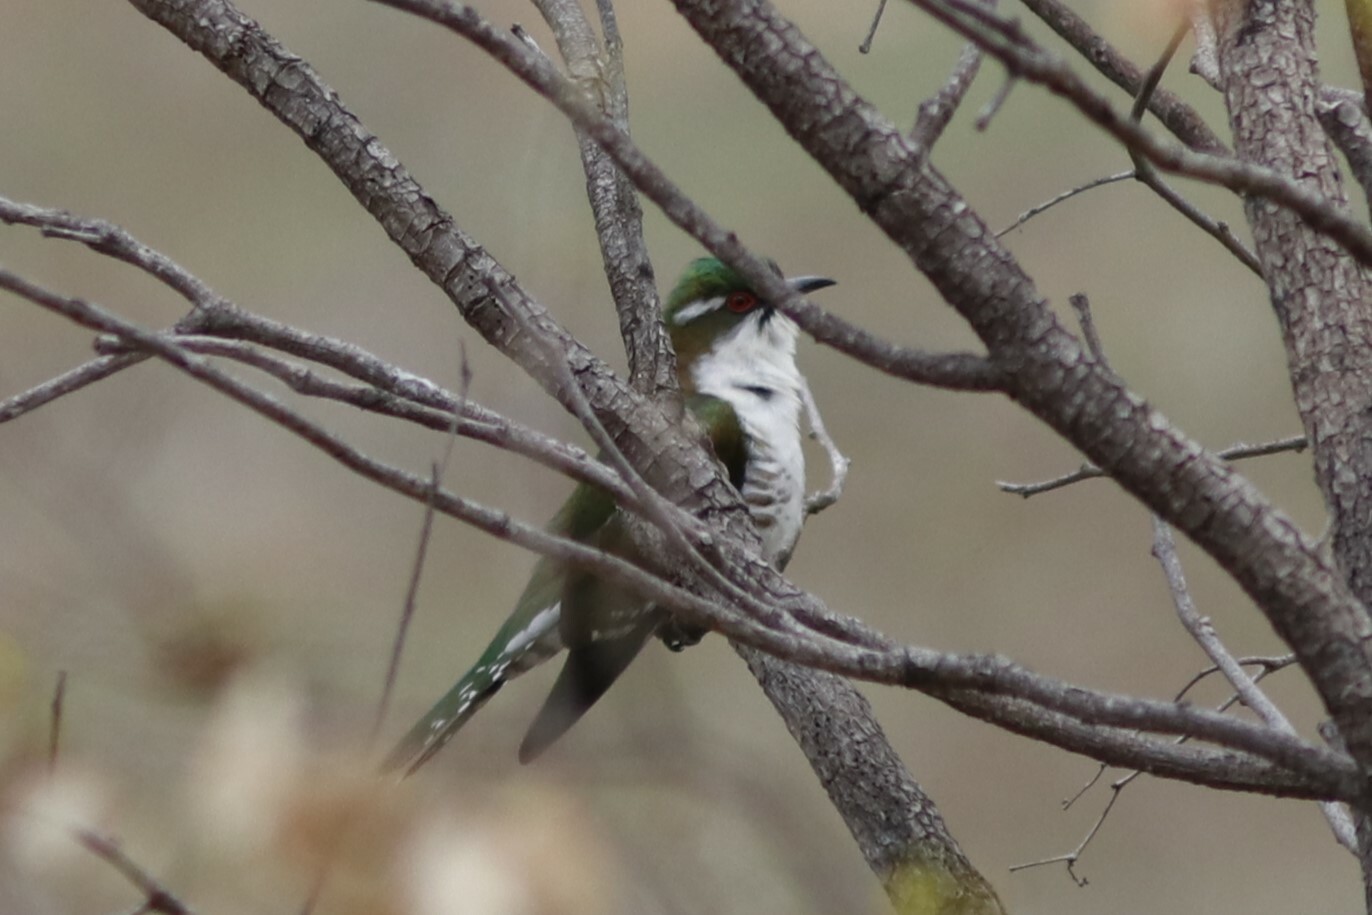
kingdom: Animalia
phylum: Chordata
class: Aves
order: Cuculiformes
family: Cuculidae
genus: Chrysococcyx
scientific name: Chrysococcyx caprius
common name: Diederik cuckoo
